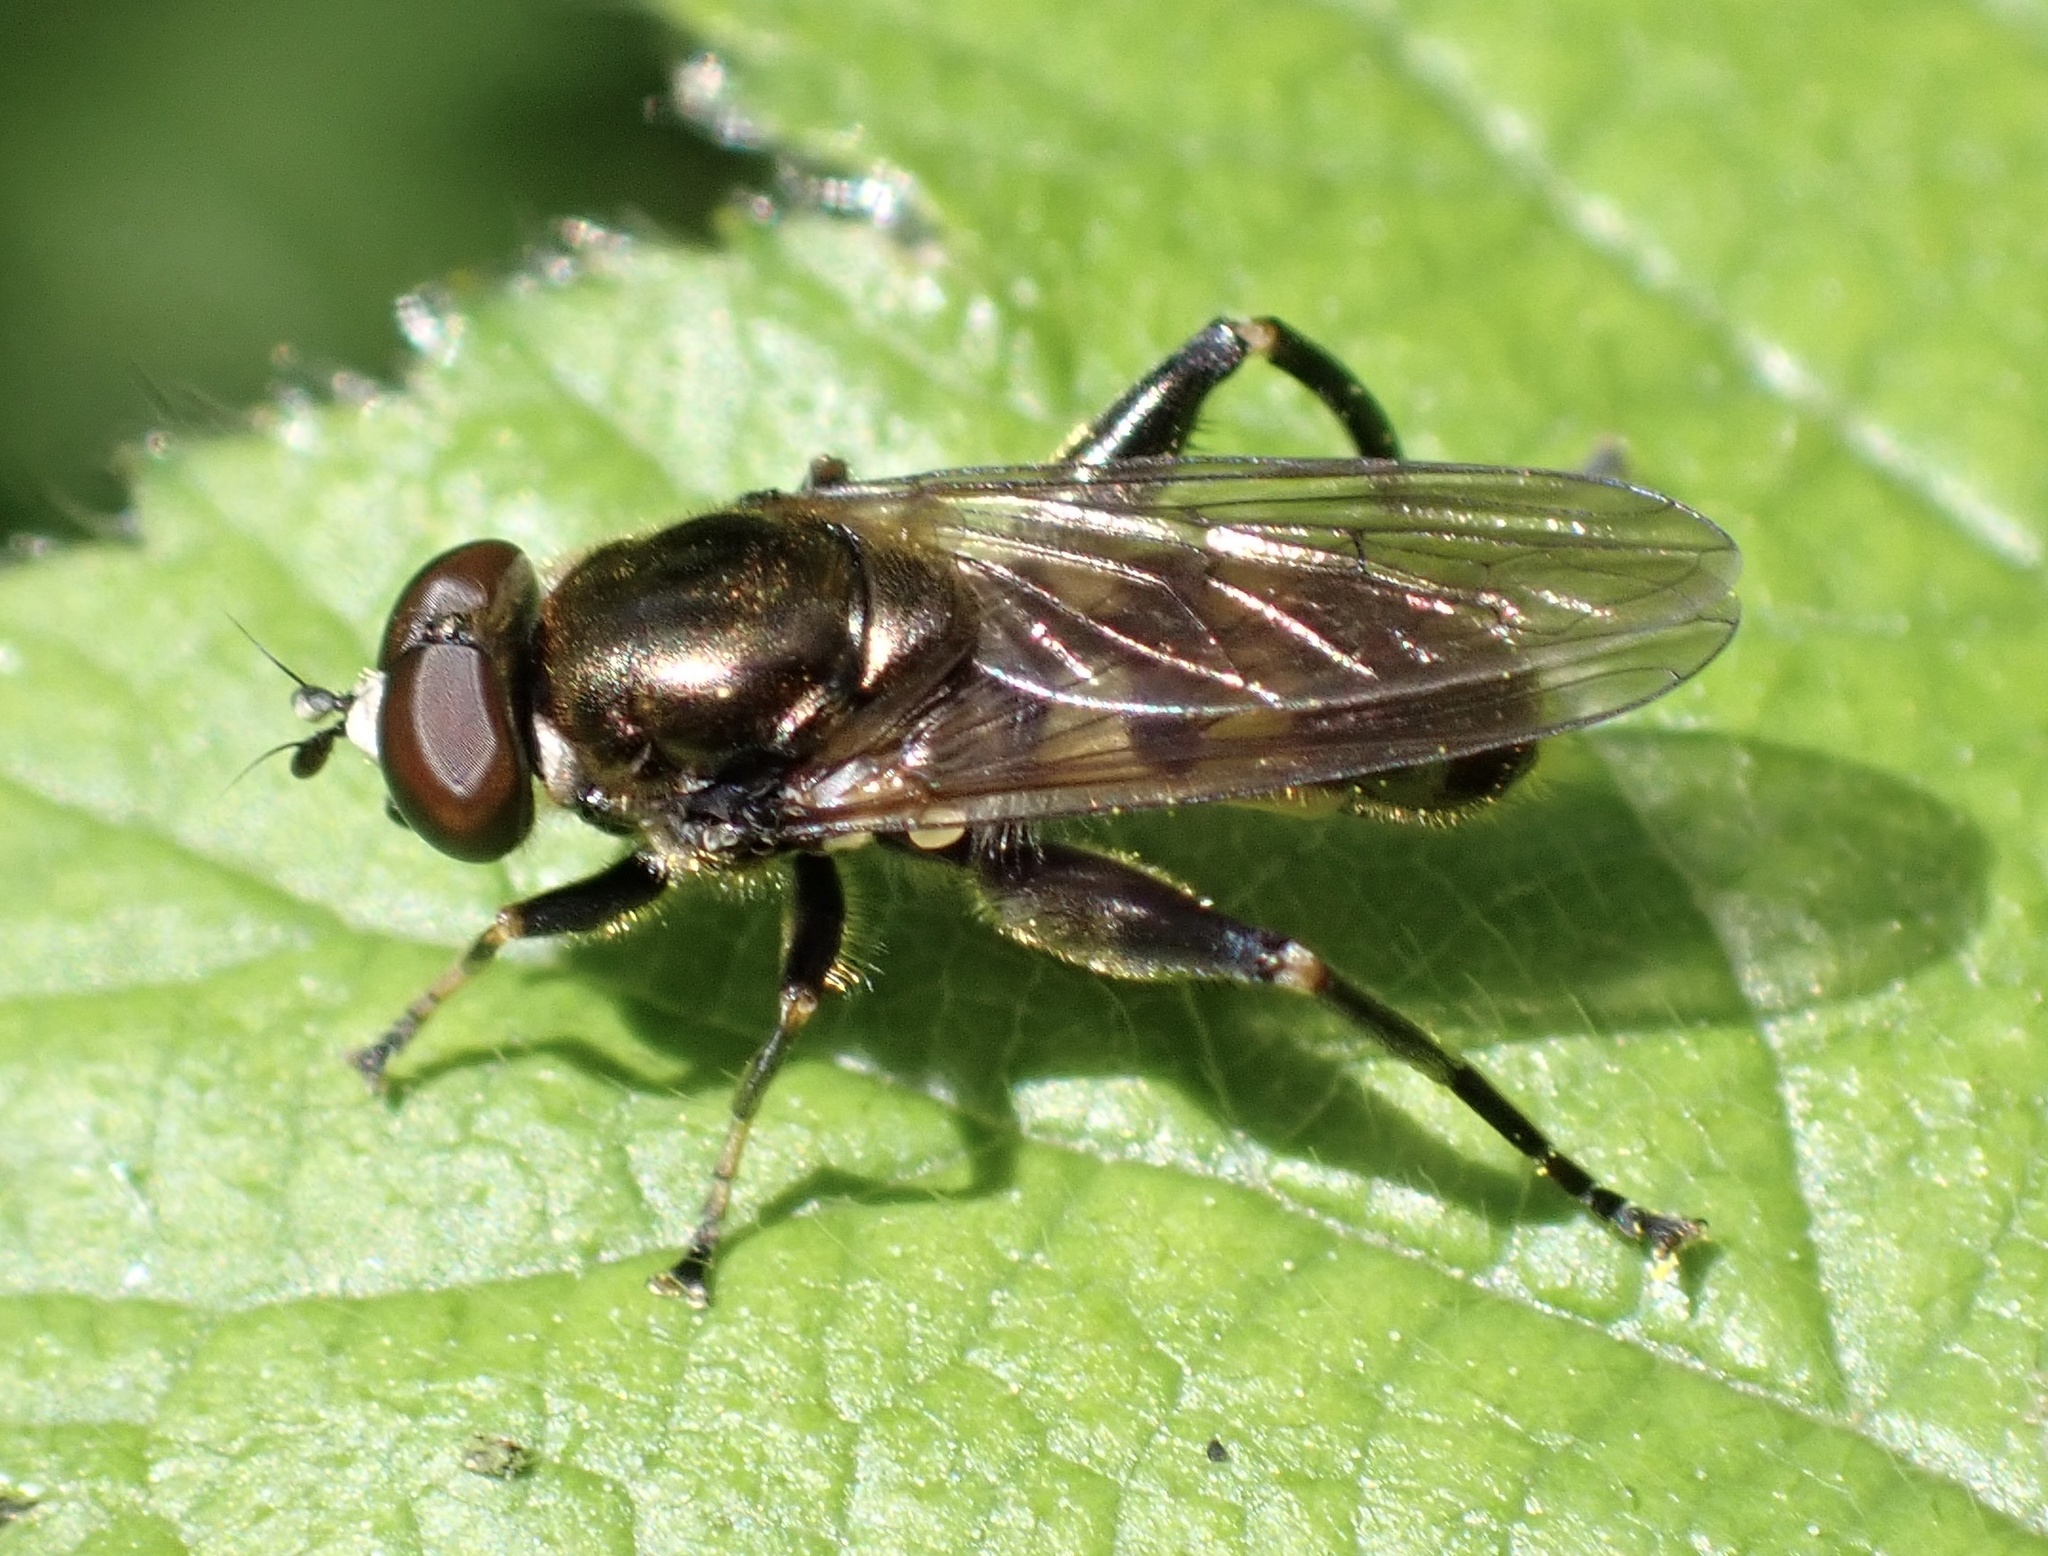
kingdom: Animalia
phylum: Arthropoda
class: Insecta
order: Diptera
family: Syrphidae
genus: Chalcosyrphus
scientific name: Chalcosyrphus nemorum
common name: Dusky-banded forest fly
